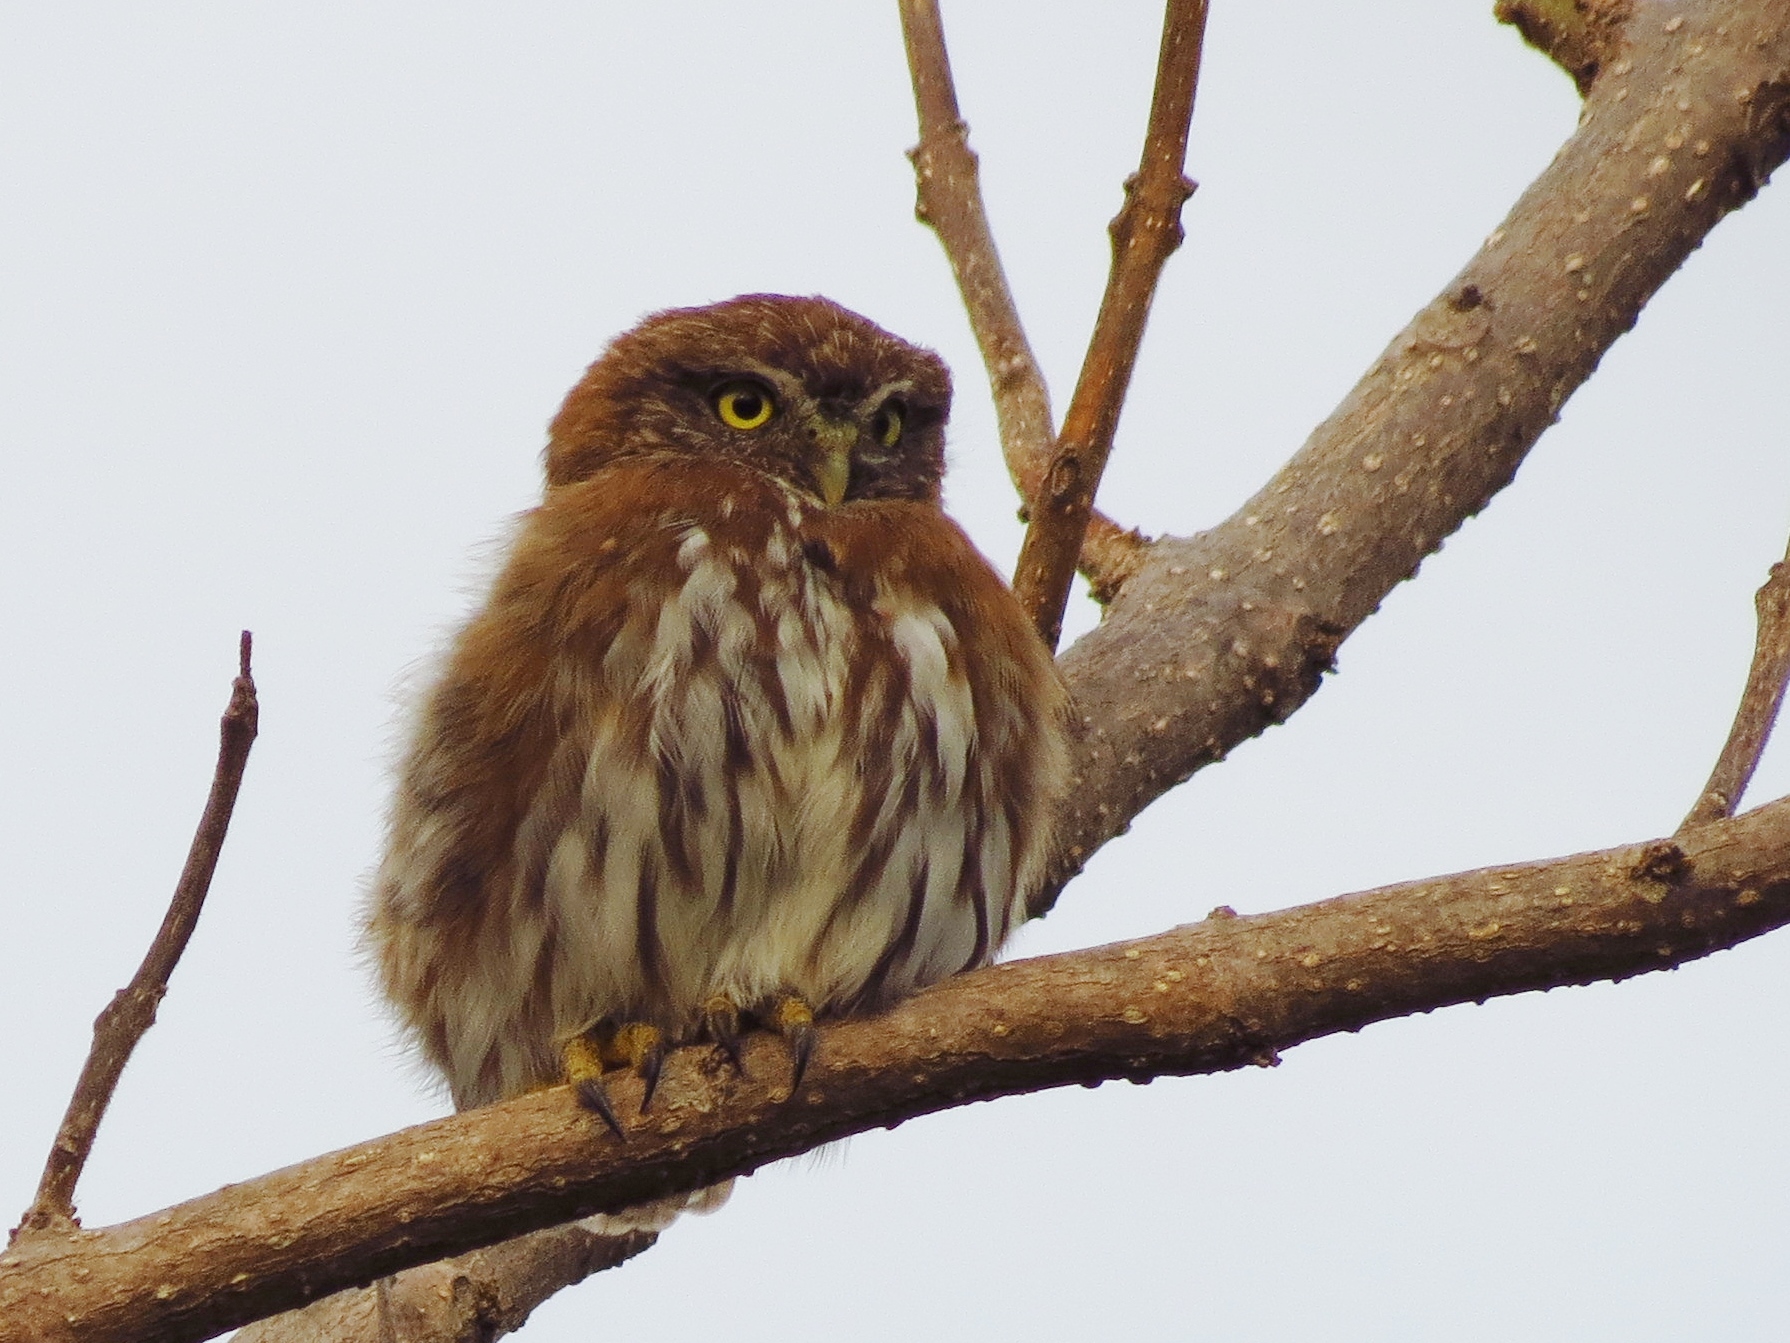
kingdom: Animalia
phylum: Chordata
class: Aves
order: Strigiformes
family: Strigidae
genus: Glaucidium
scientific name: Glaucidium brasilianum
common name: Ferruginous pygmy-owl
